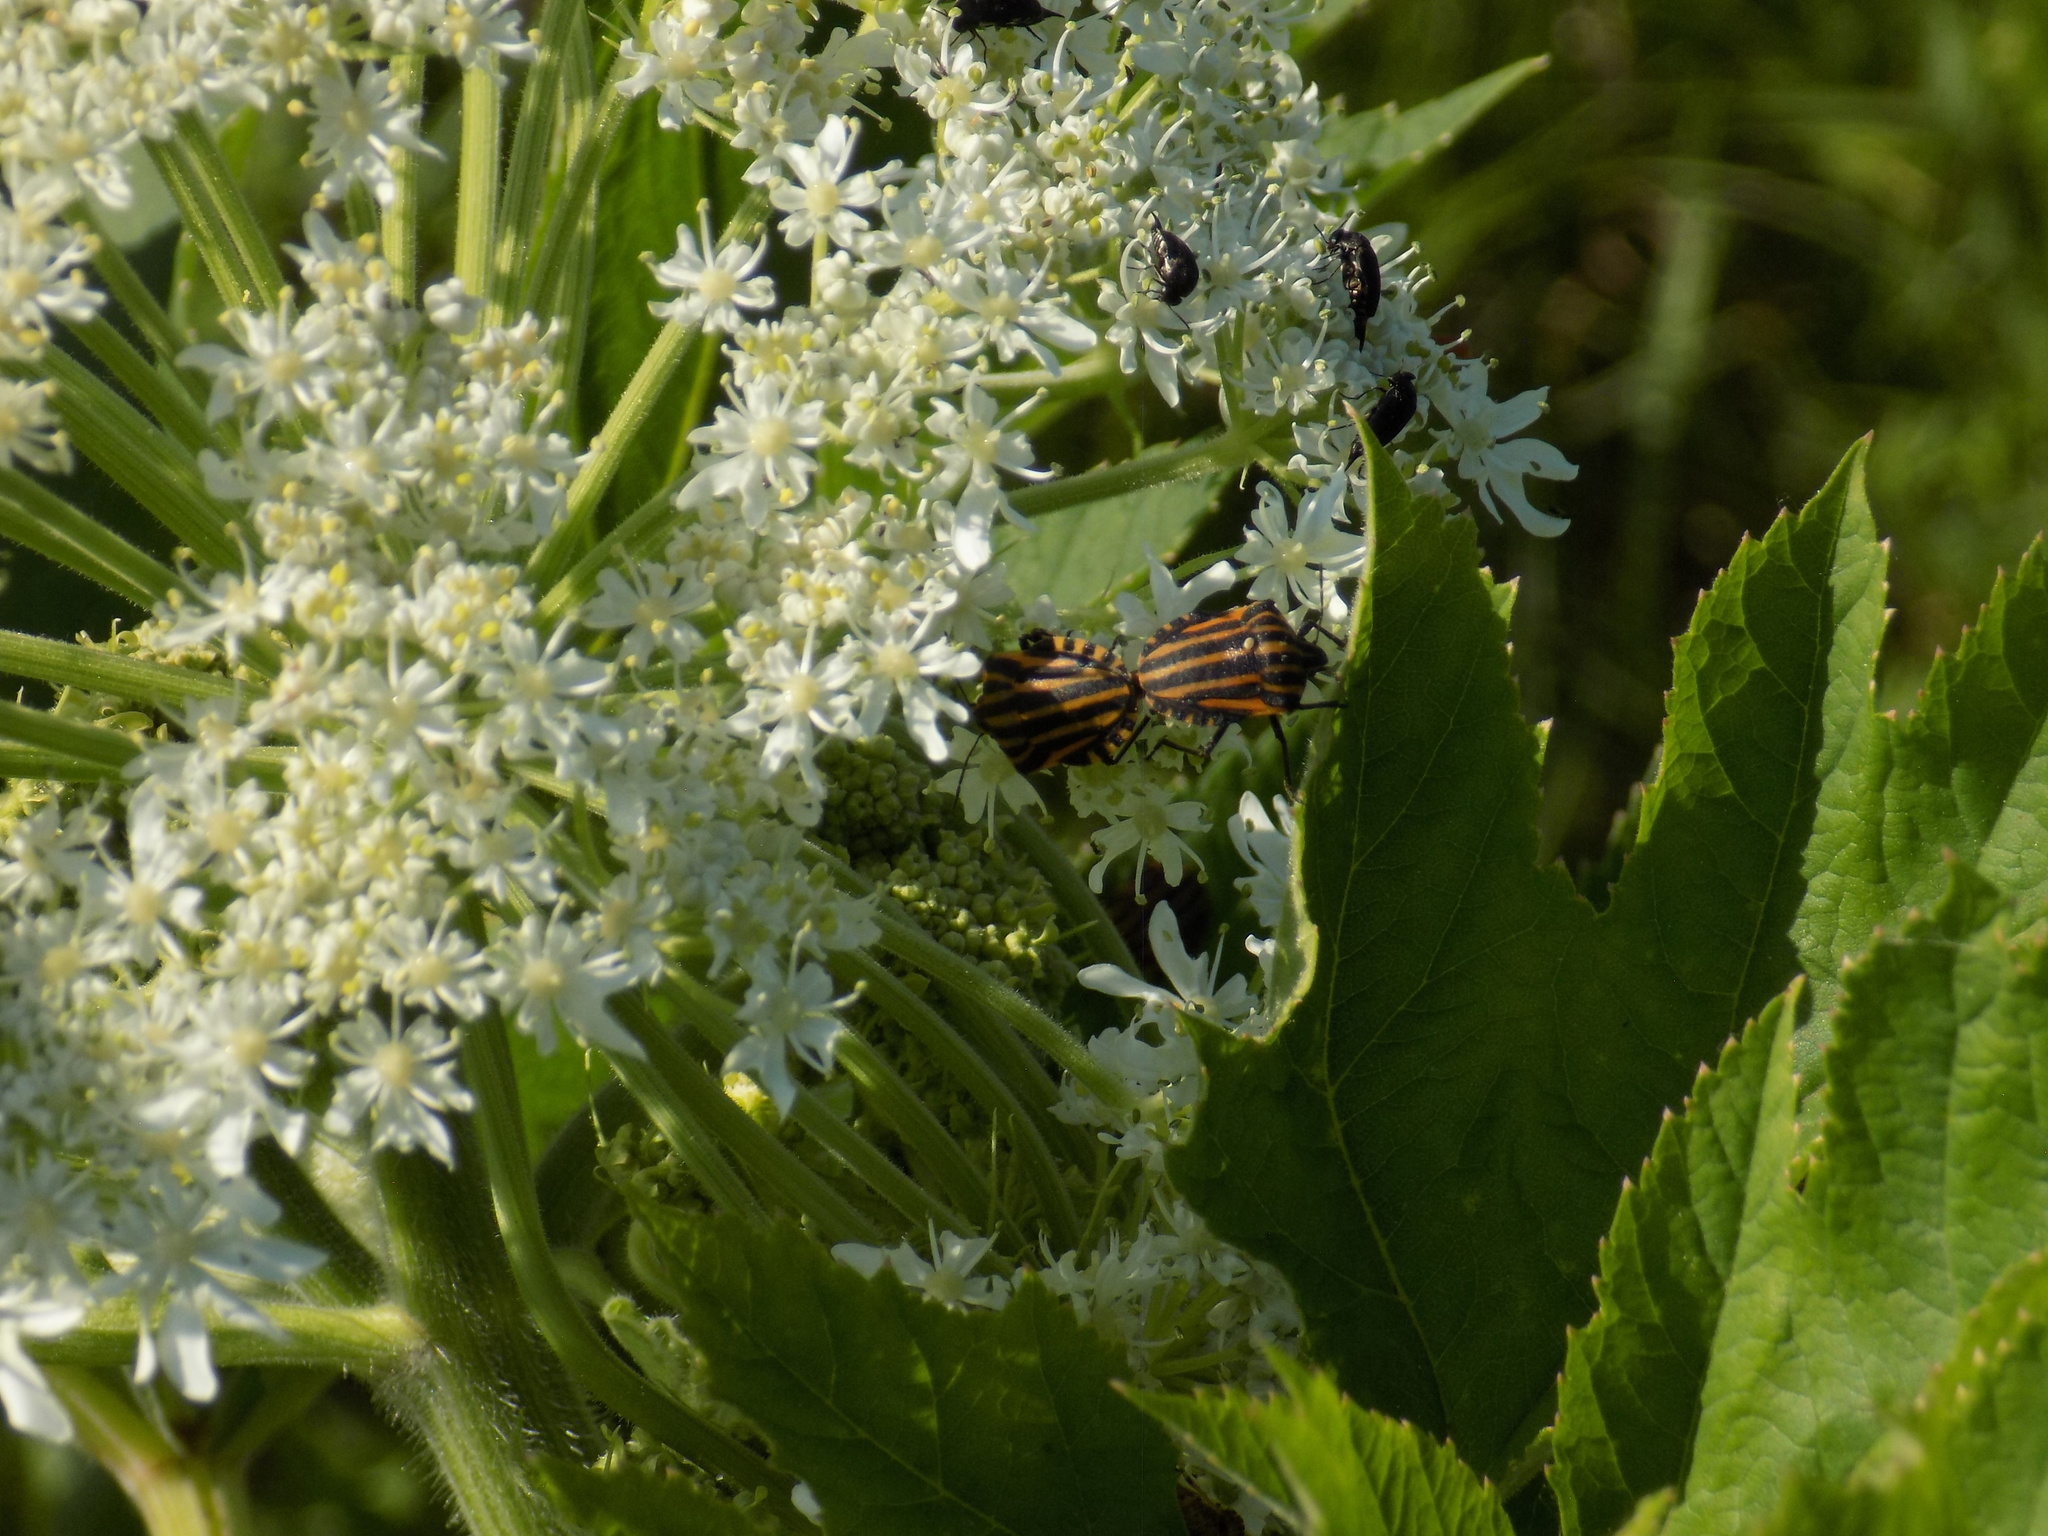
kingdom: Animalia
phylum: Arthropoda
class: Insecta
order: Hemiptera
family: Pentatomidae
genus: Graphosoma
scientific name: Graphosoma italicum
